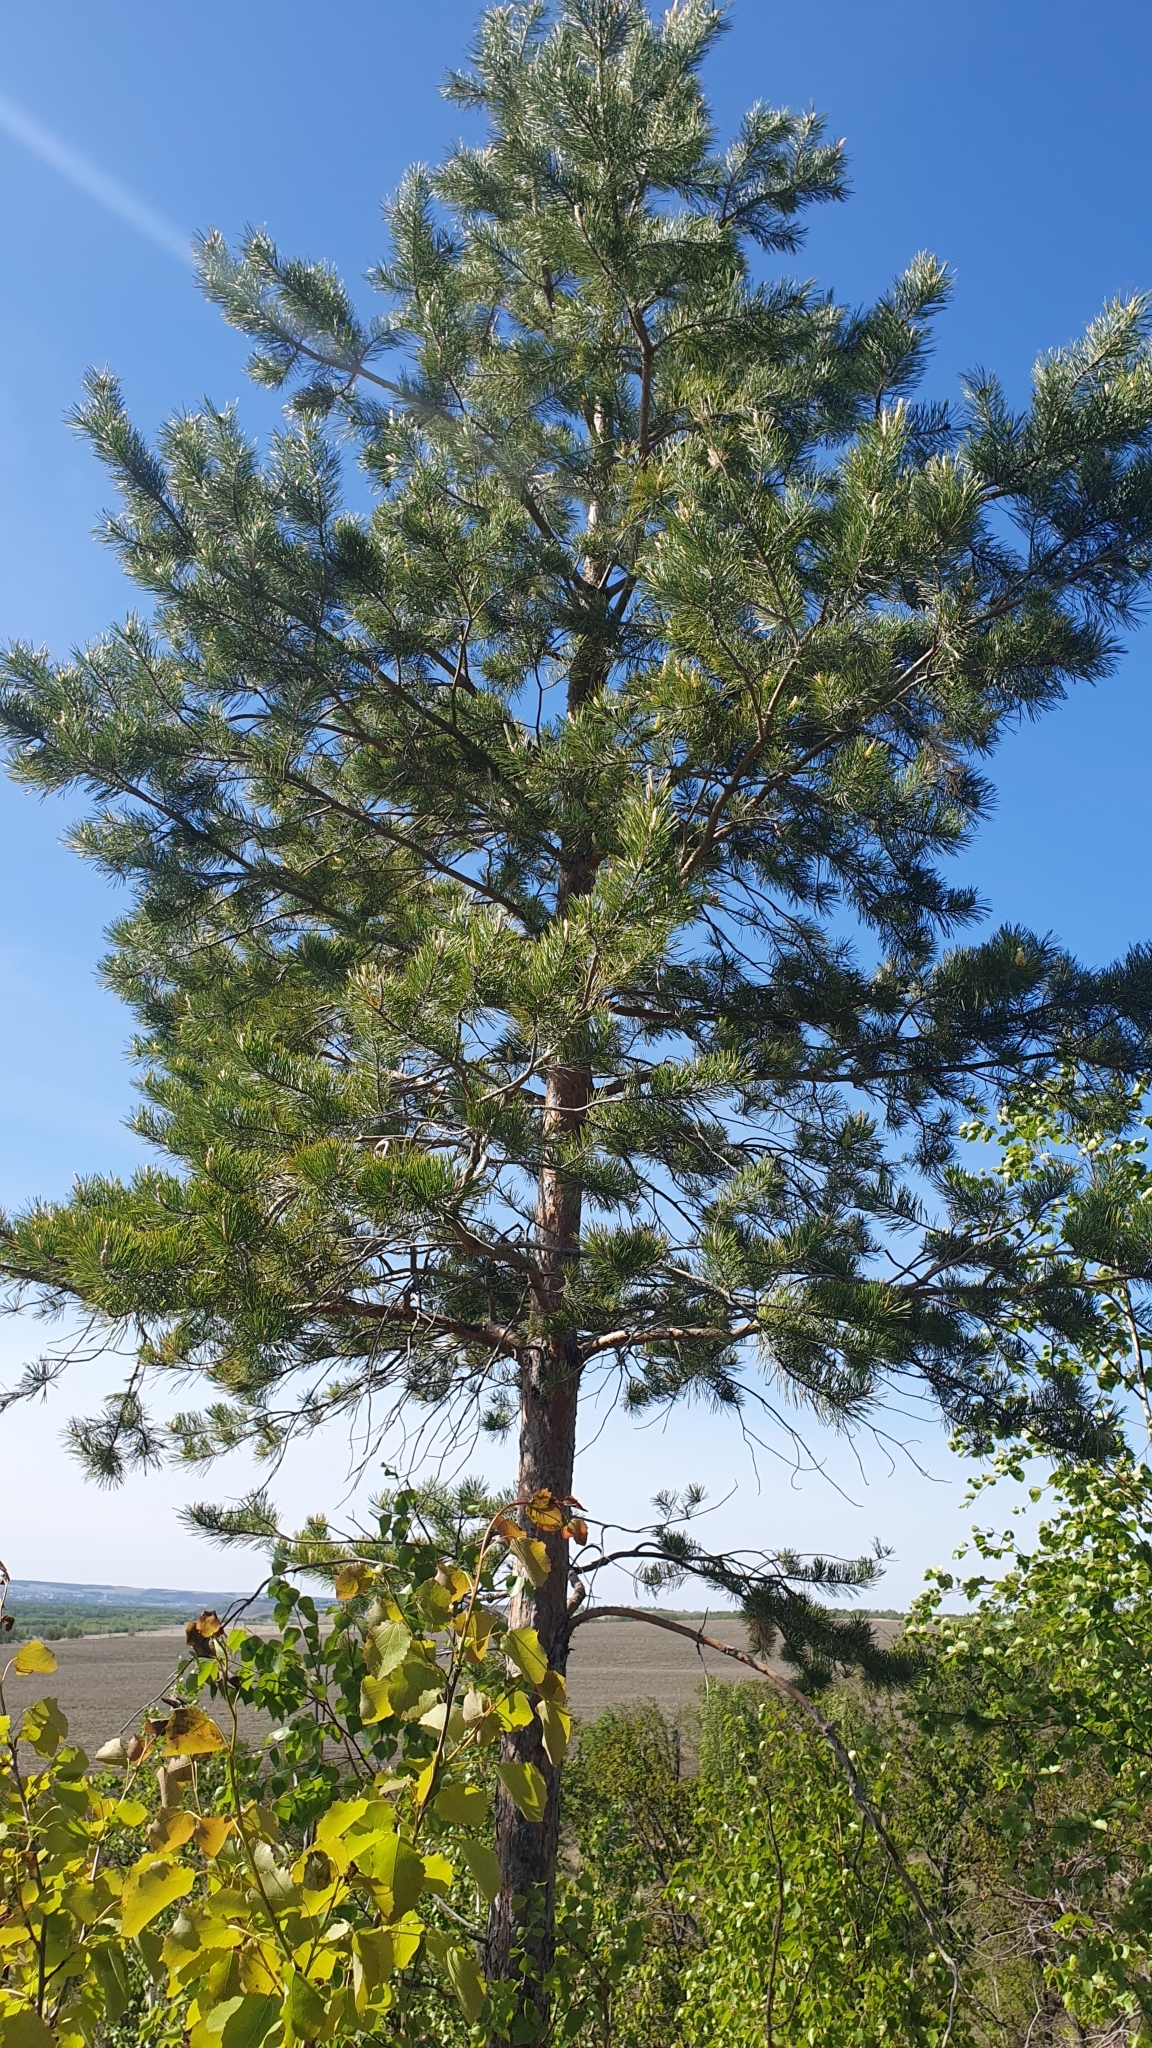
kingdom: Plantae
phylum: Tracheophyta
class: Pinopsida
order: Pinales
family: Pinaceae
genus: Pinus
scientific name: Pinus sylvestris
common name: Scots pine
